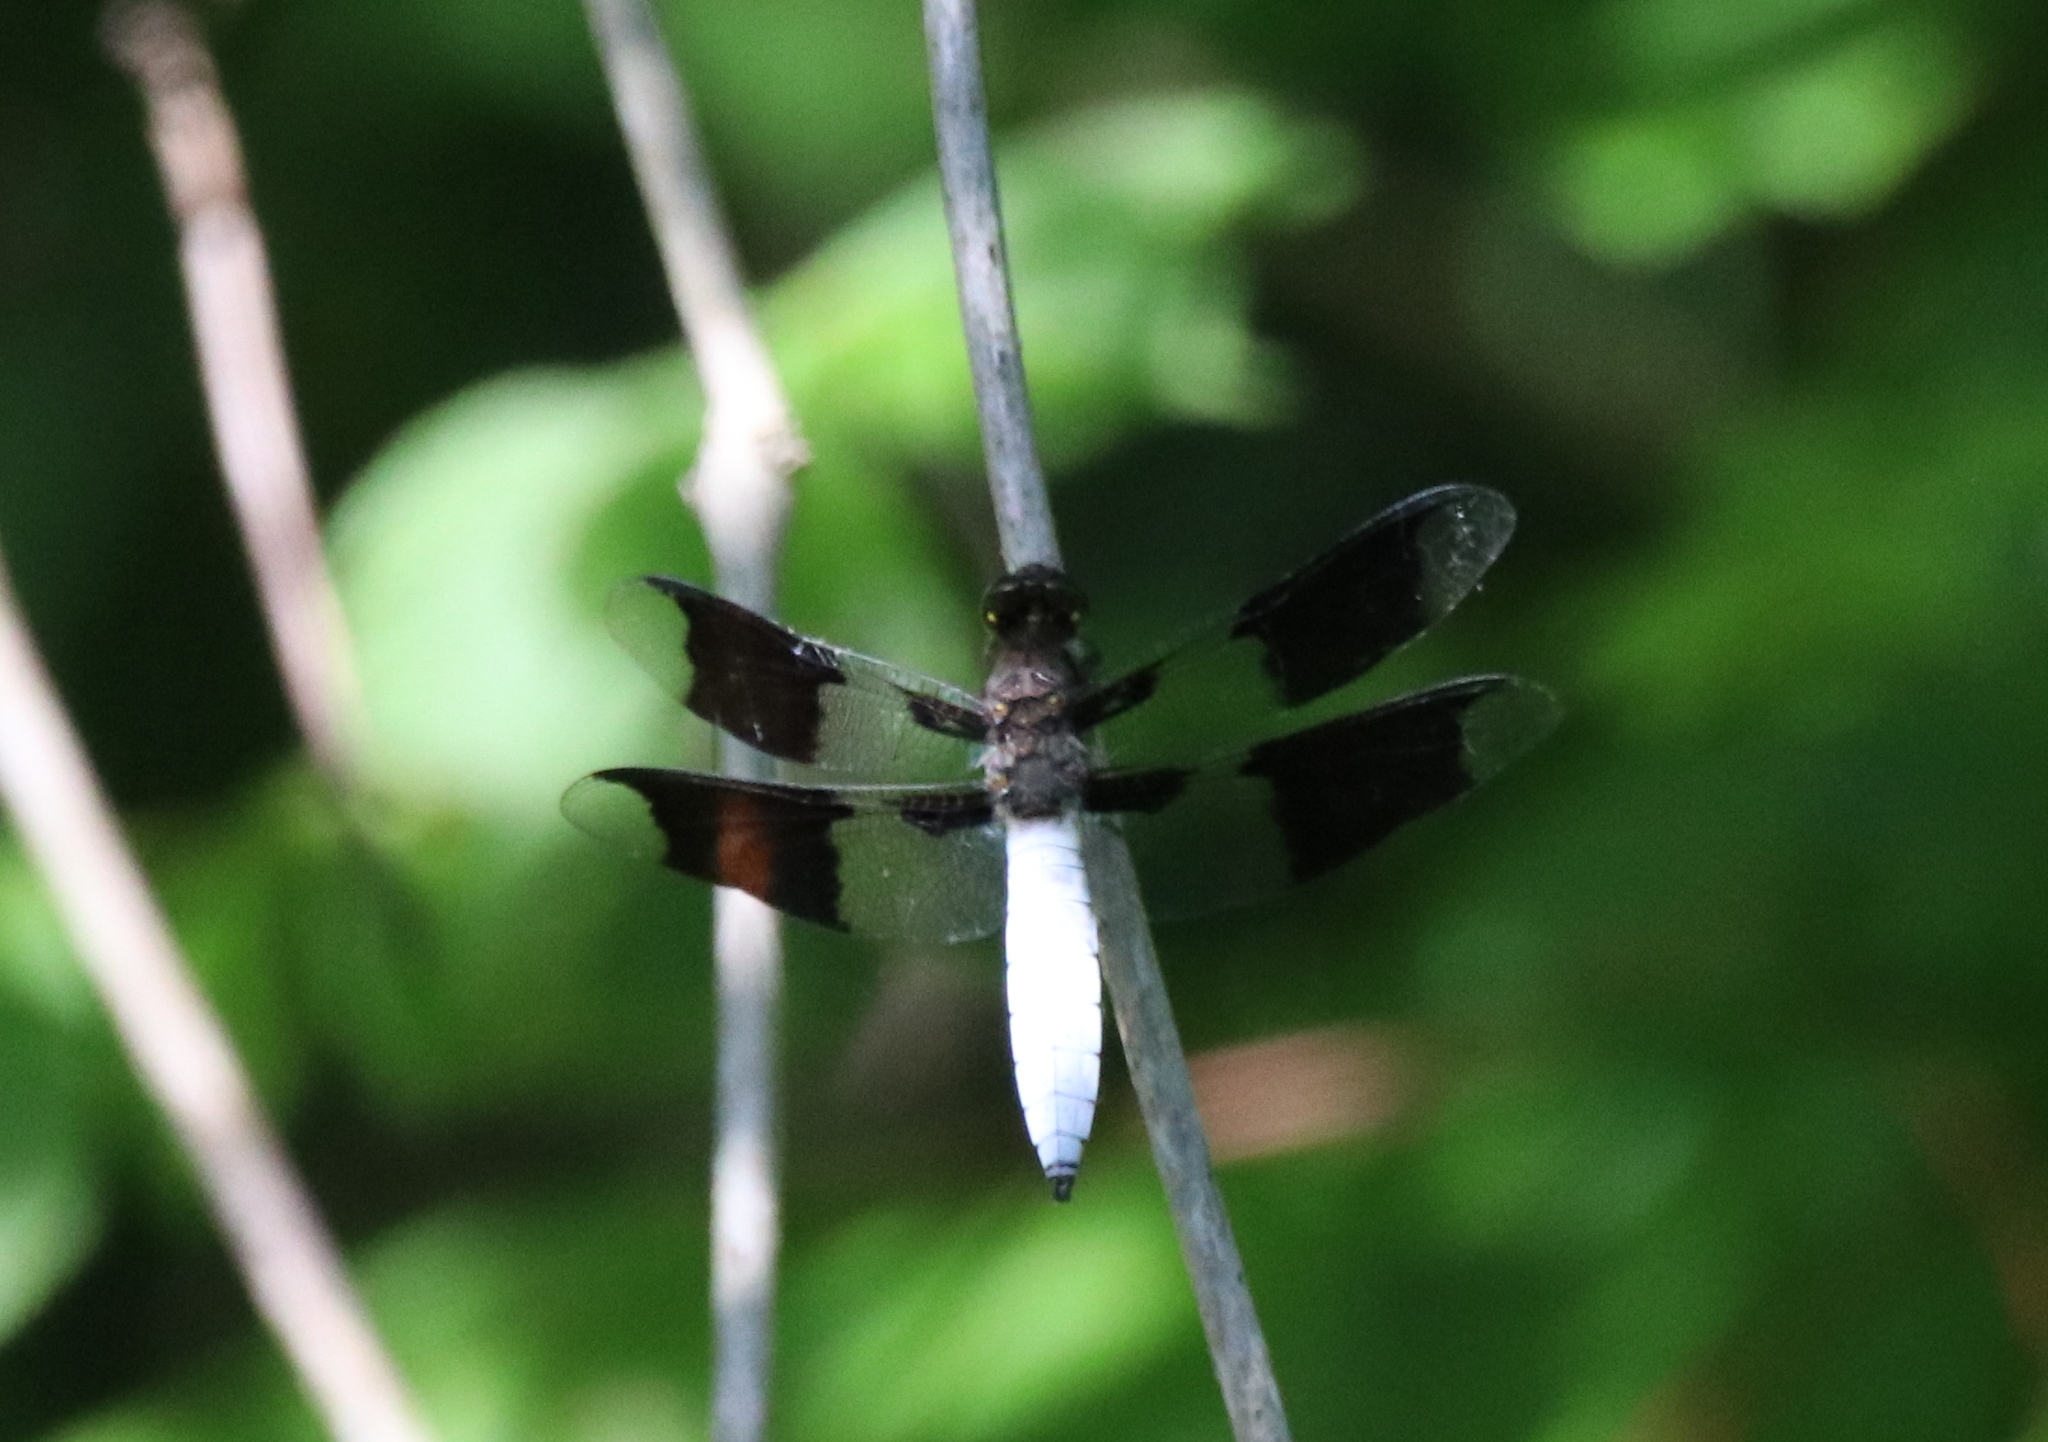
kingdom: Animalia
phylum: Arthropoda
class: Insecta
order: Odonata
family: Libellulidae
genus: Plathemis
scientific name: Plathemis lydia
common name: Common whitetail
